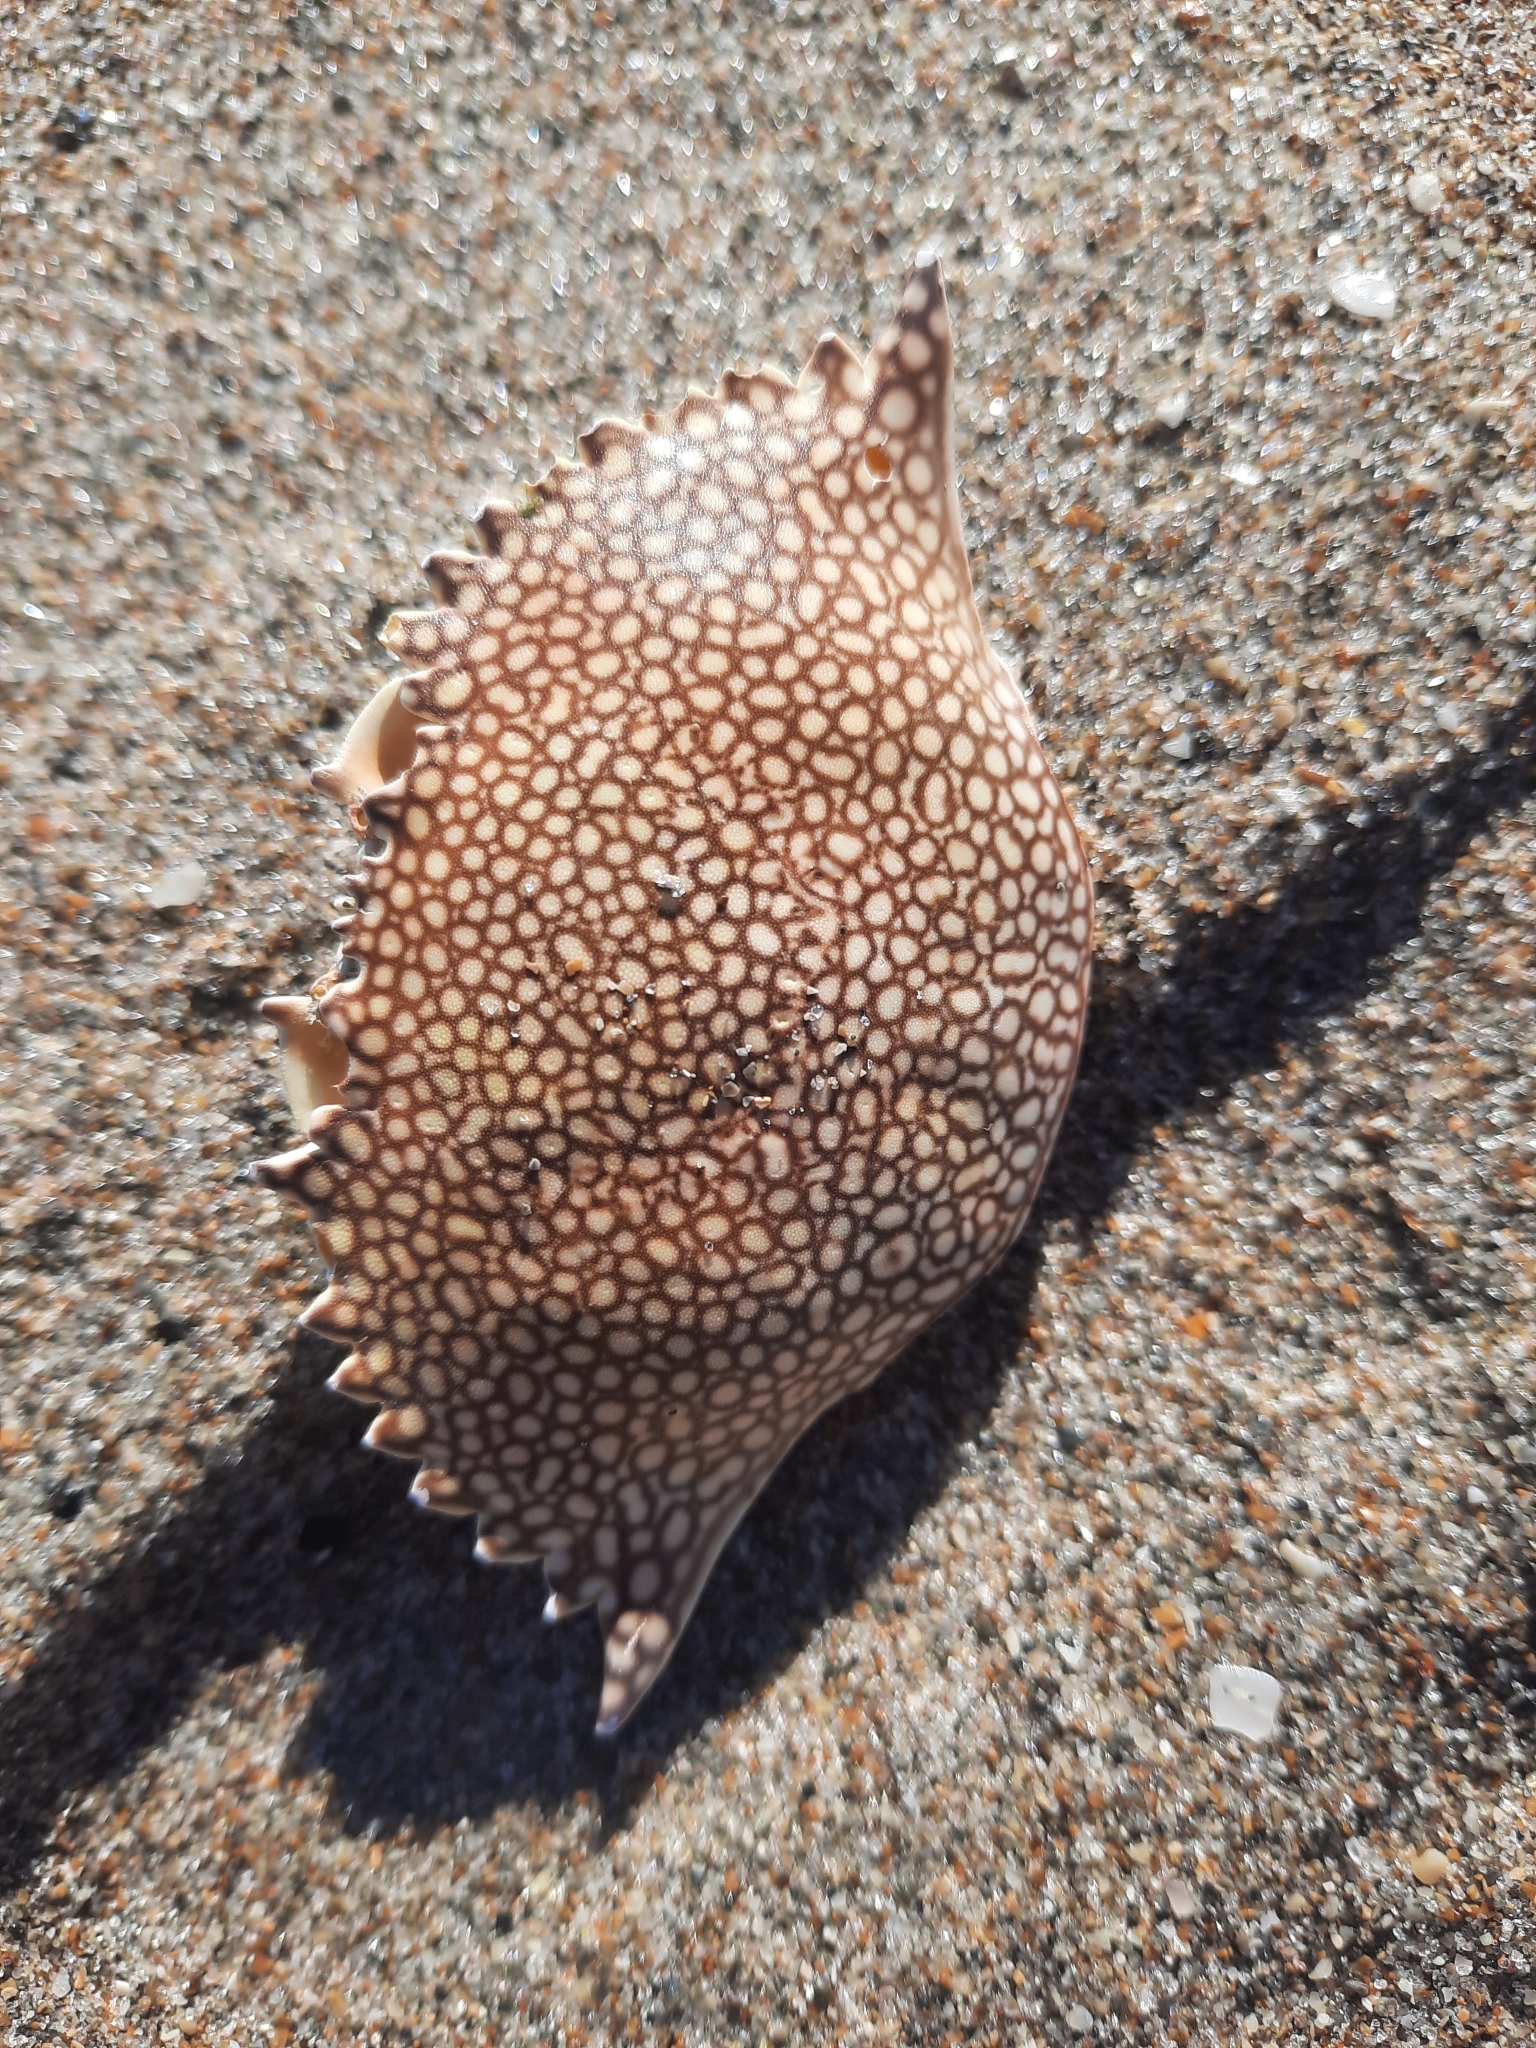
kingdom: Animalia
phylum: Arthropoda
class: Malacostraca
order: Decapoda
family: Portunidae
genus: Arenaeus
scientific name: Arenaeus cribrarius
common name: Speckled crab
